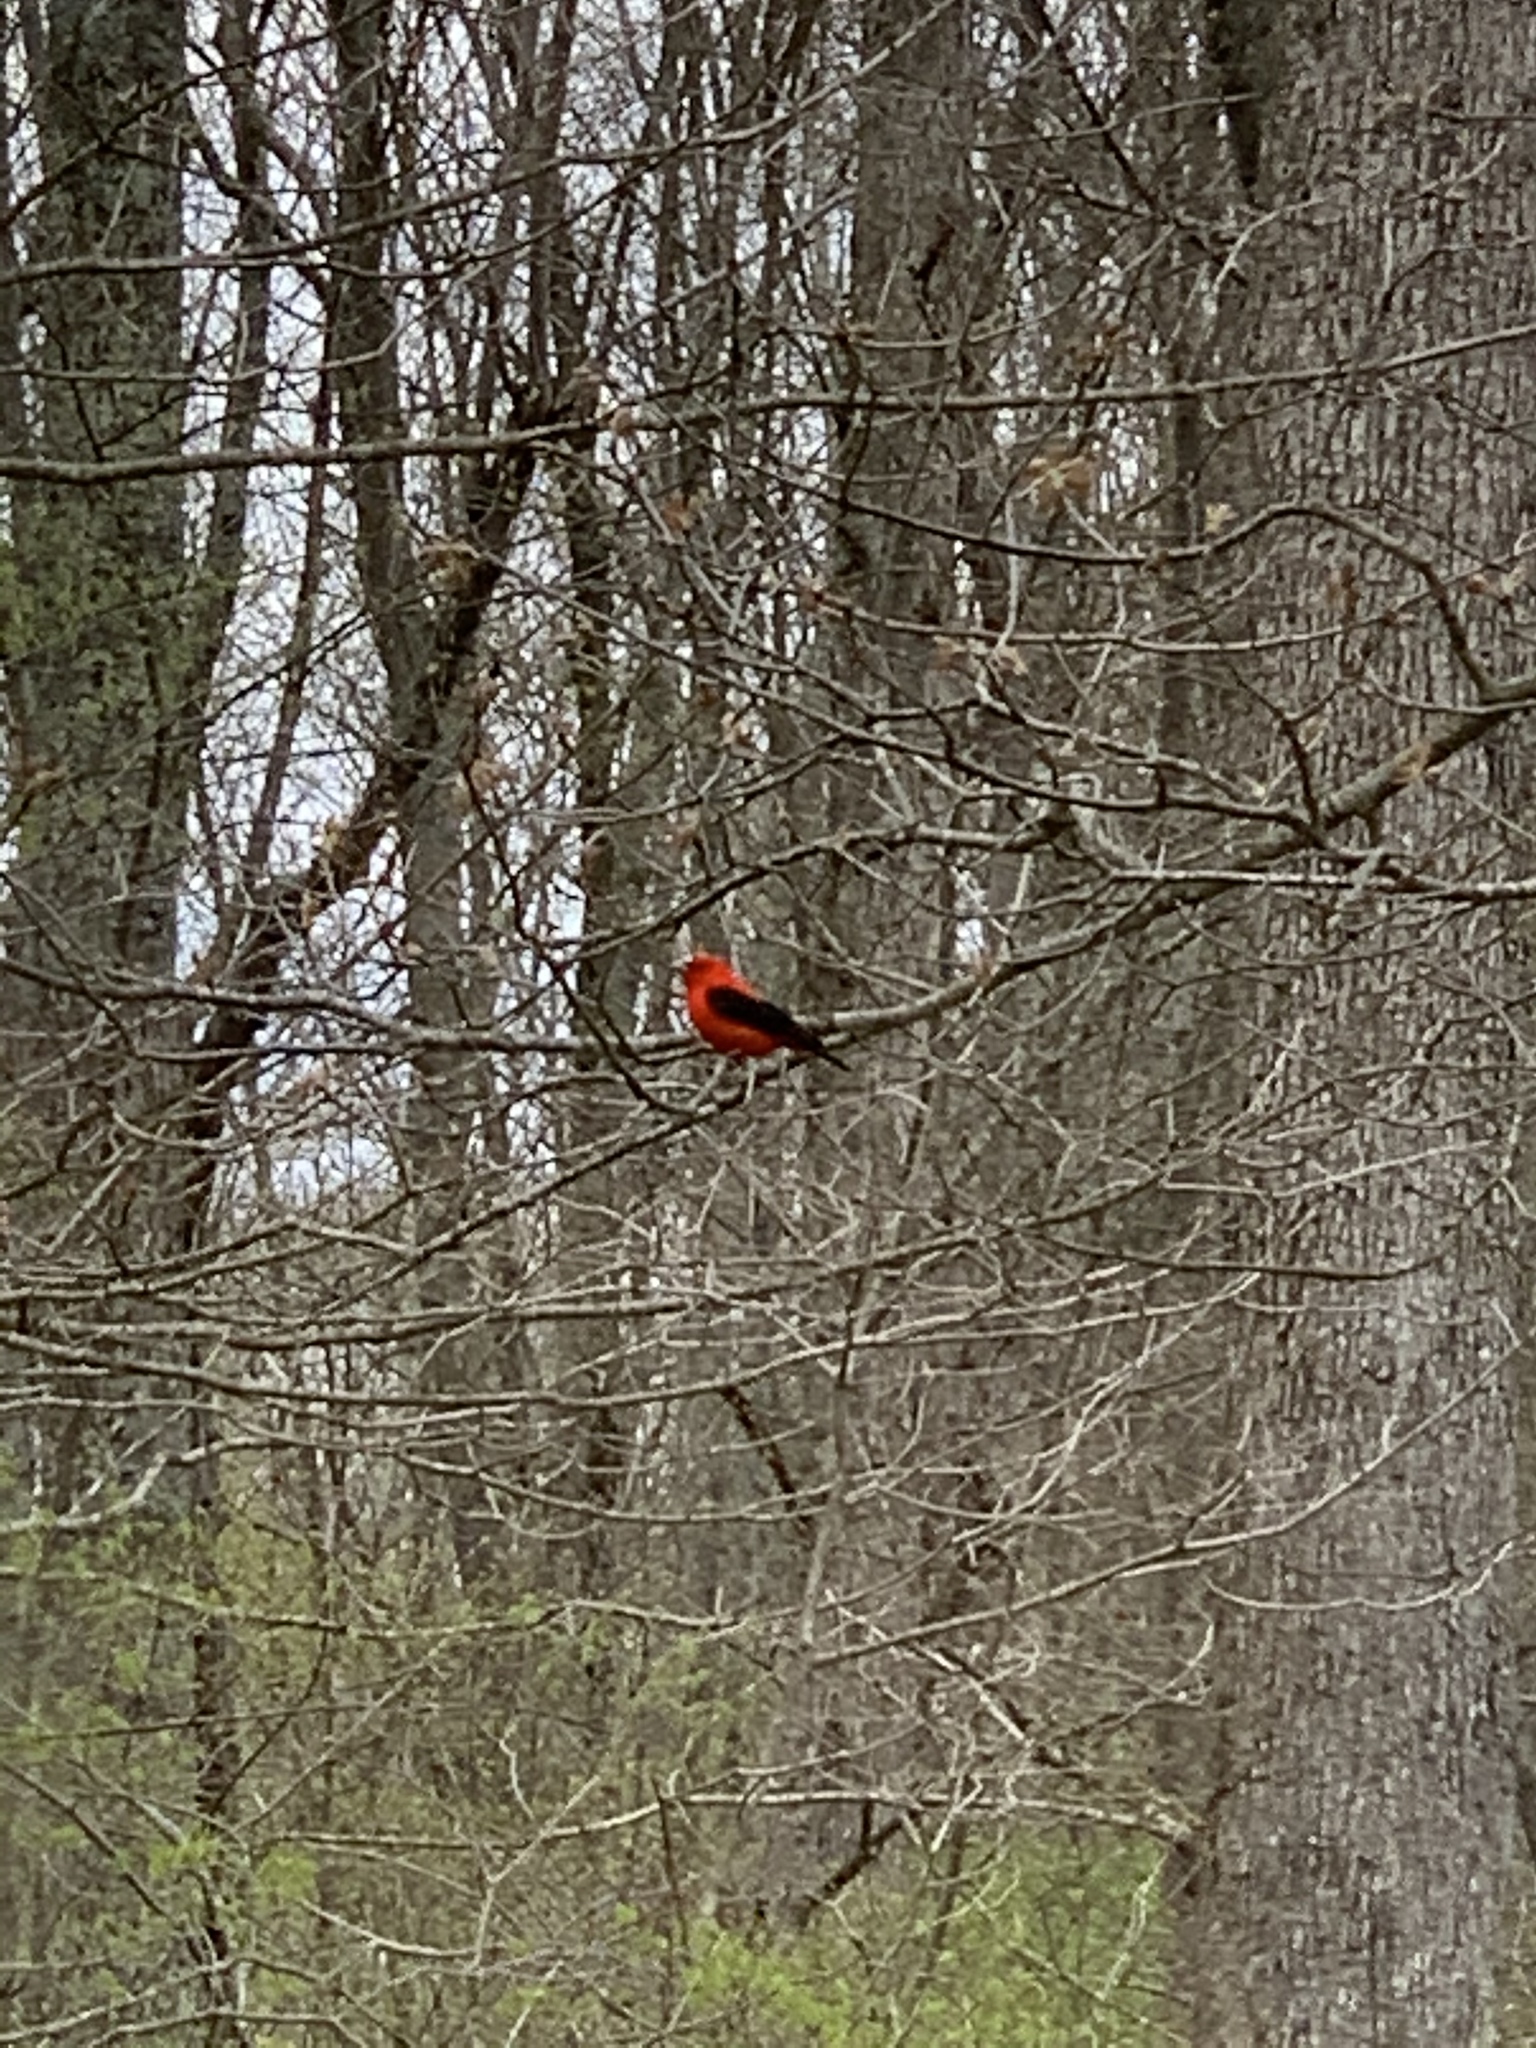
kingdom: Animalia
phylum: Chordata
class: Aves
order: Passeriformes
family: Cardinalidae
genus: Piranga
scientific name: Piranga olivacea
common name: Scarlet tanager
